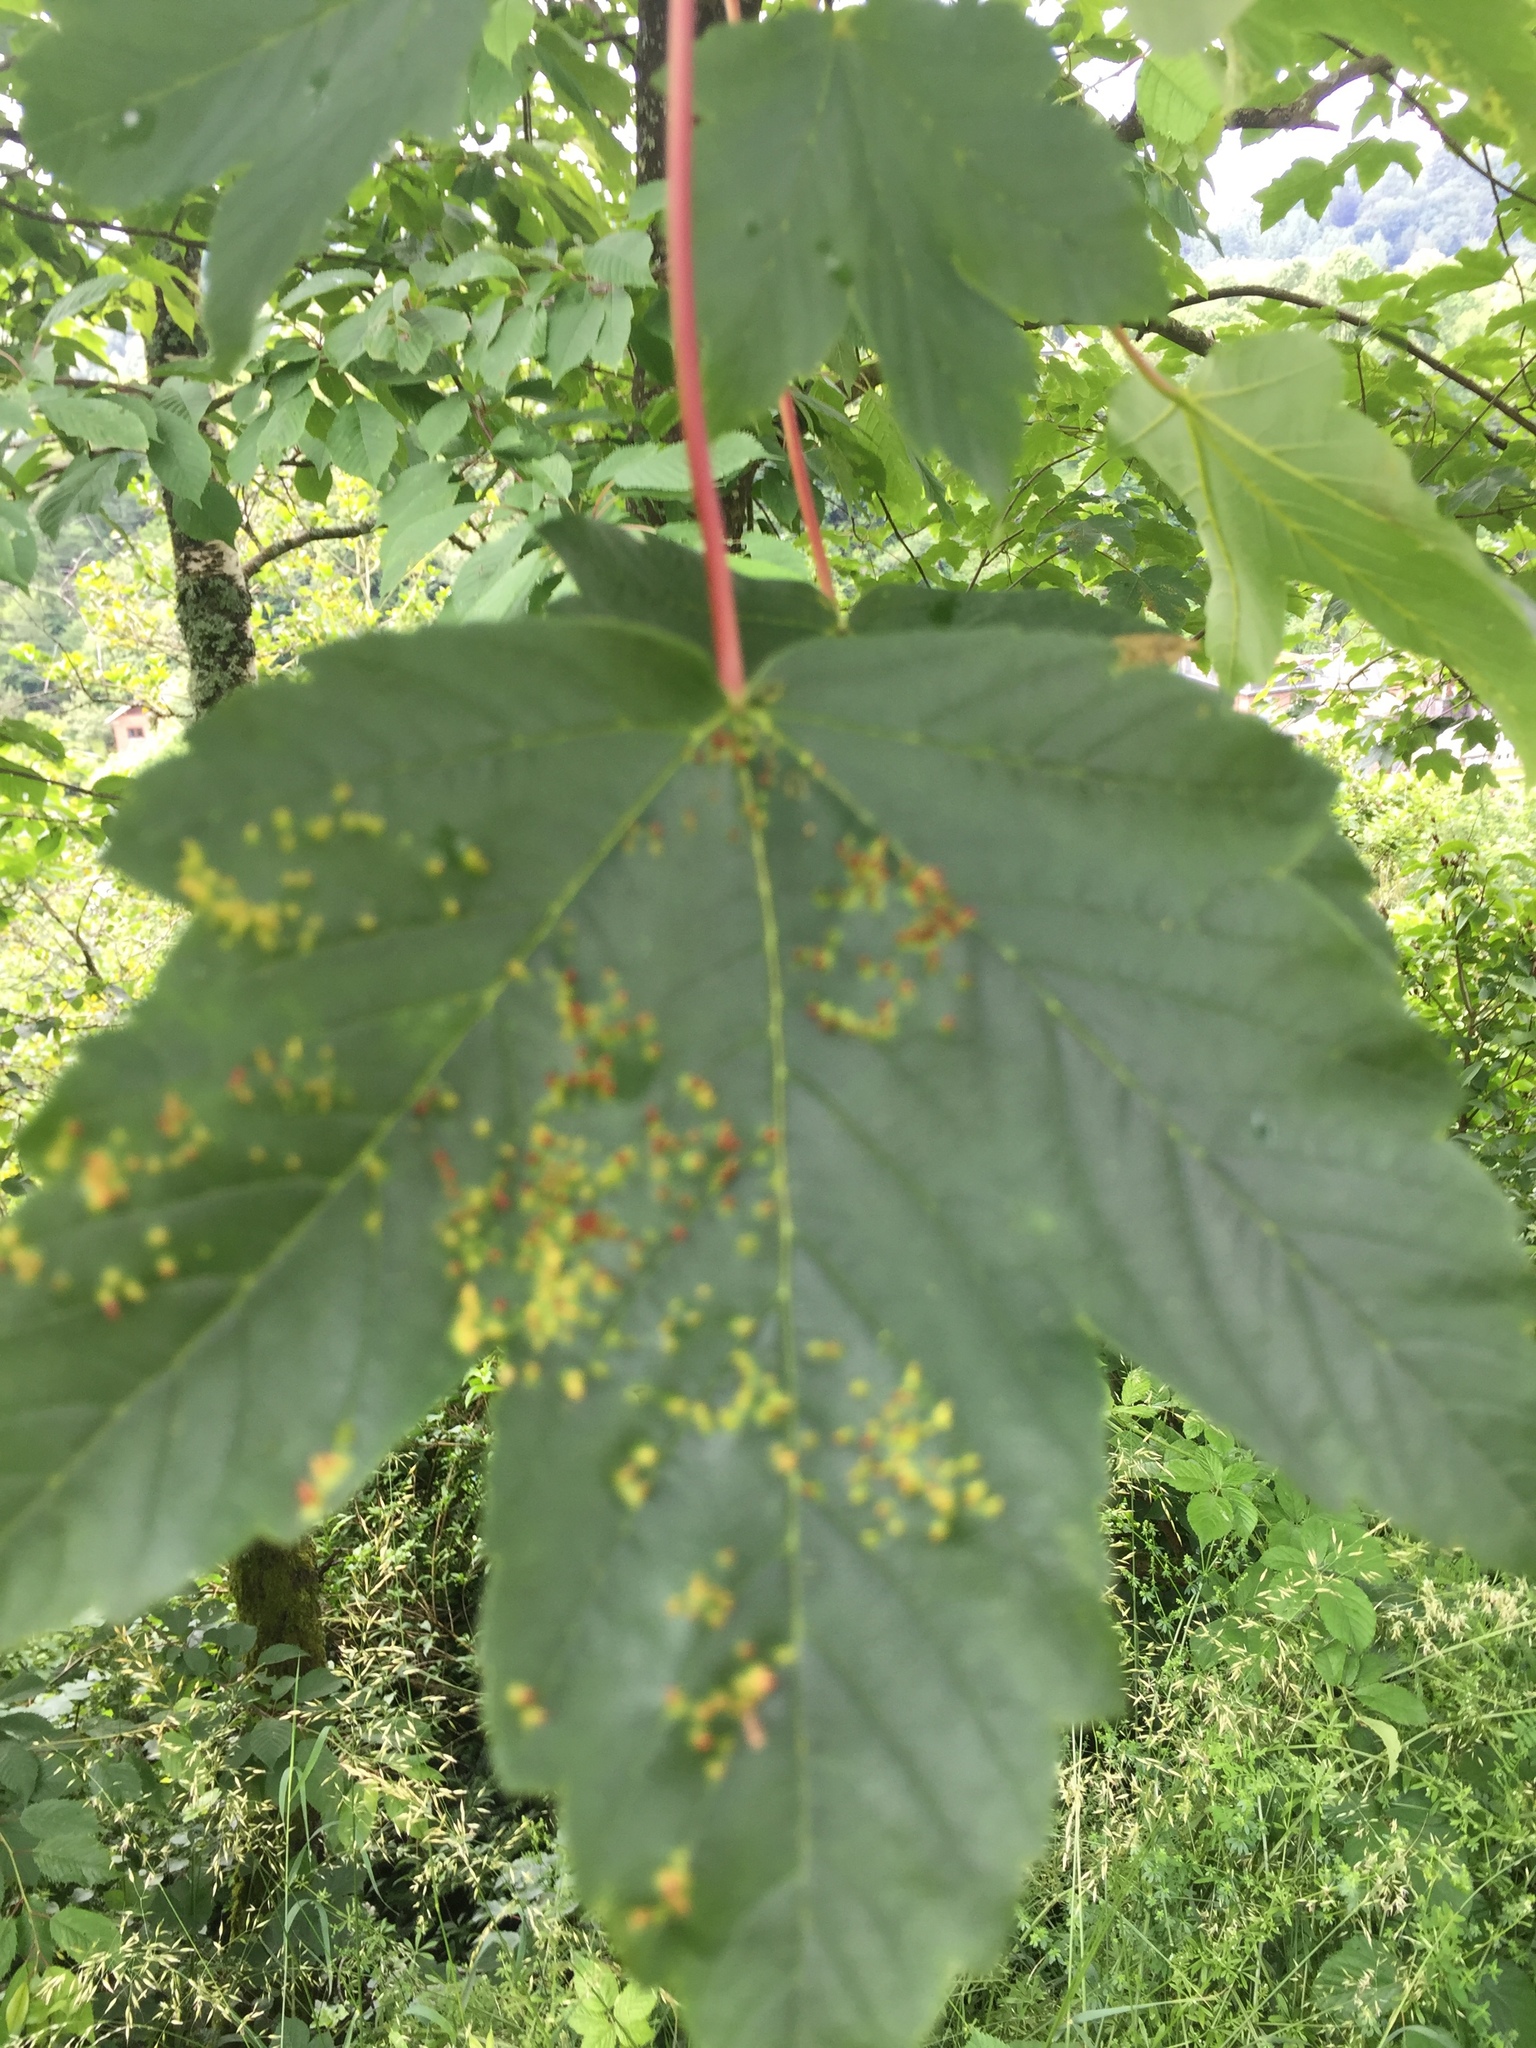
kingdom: Animalia
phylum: Arthropoda
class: Arachnida
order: Trombidiformes
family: Eriophyidae
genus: Aceria
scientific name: Aceria cephaloneus
